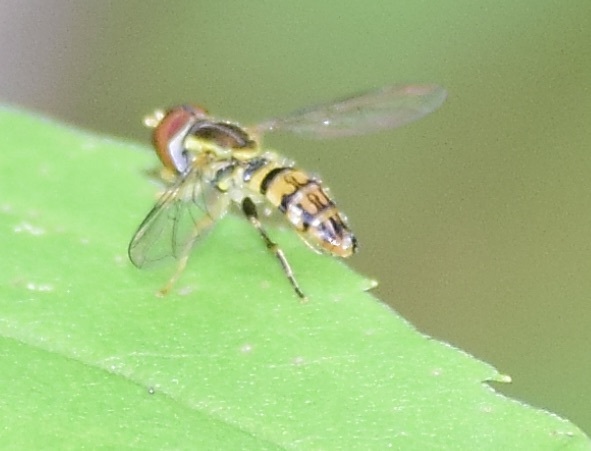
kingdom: Animalia
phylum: Arthropoda
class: Insecta
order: Diptera
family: Syrphidae
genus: Toxomerus
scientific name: Toxomerus geminatus
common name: Eastern calligrapher
